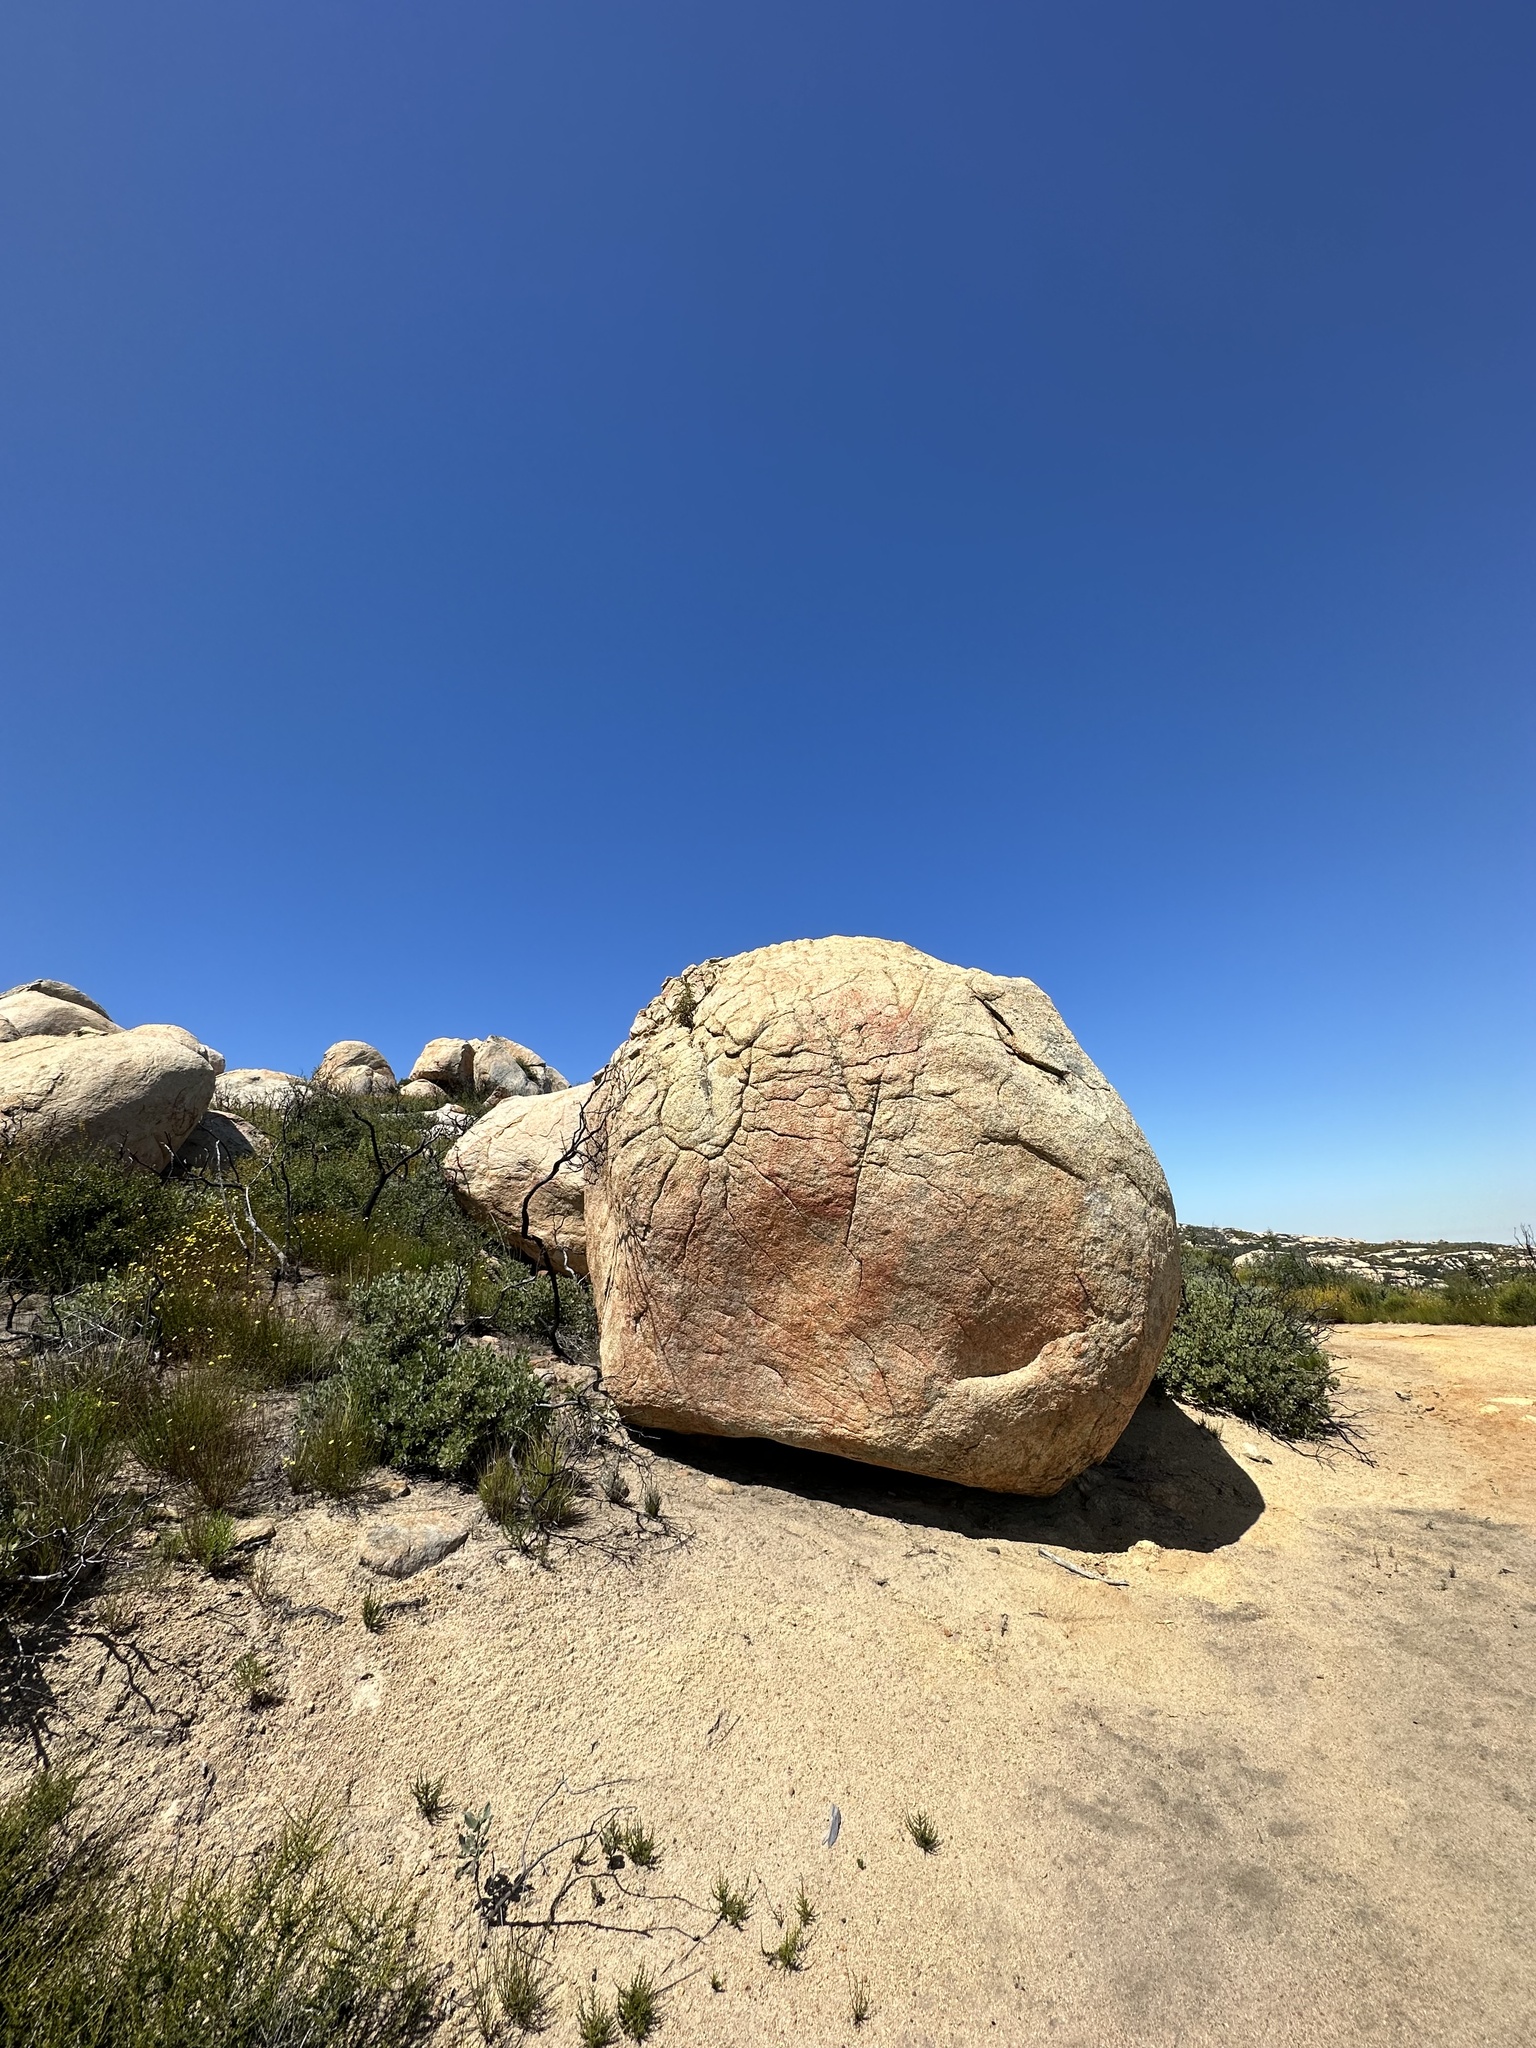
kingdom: Plantae
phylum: Tracheophyta
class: Magnoliopsida
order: Sapindales
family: Anacardiaceae
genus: Malosma
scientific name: Malosma laurina
